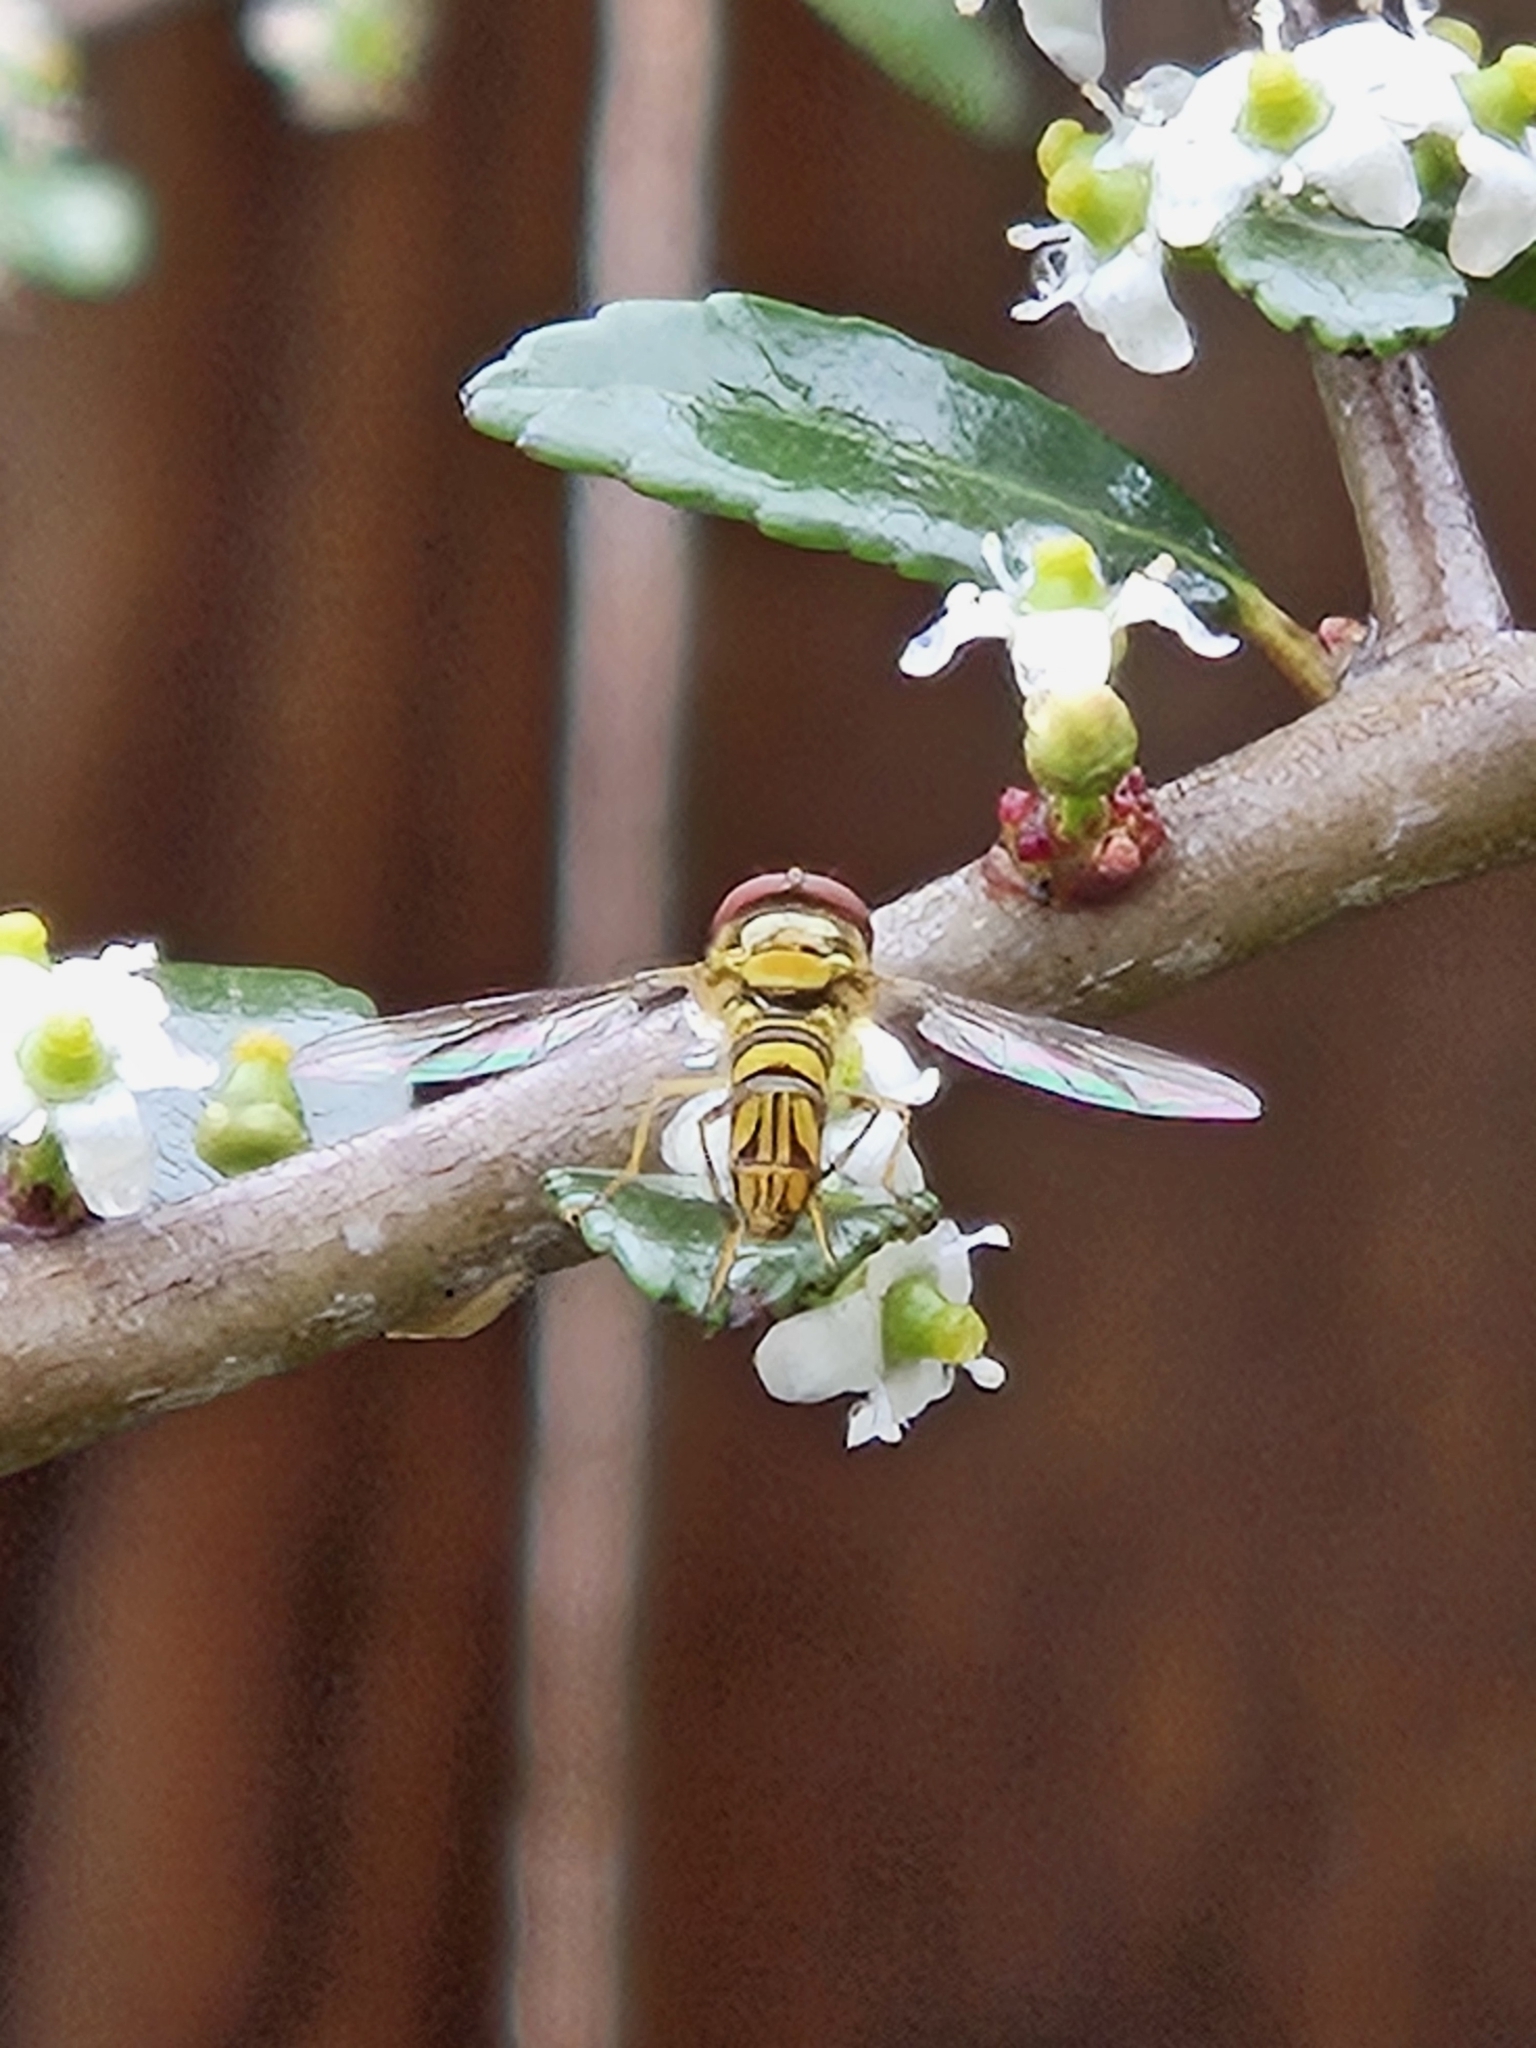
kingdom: Animalia
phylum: Arthropoda
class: Insecta
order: Diptera
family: Syrphidae
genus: Allograpta
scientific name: Allograpta obliqua
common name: Common oblique syrphid
